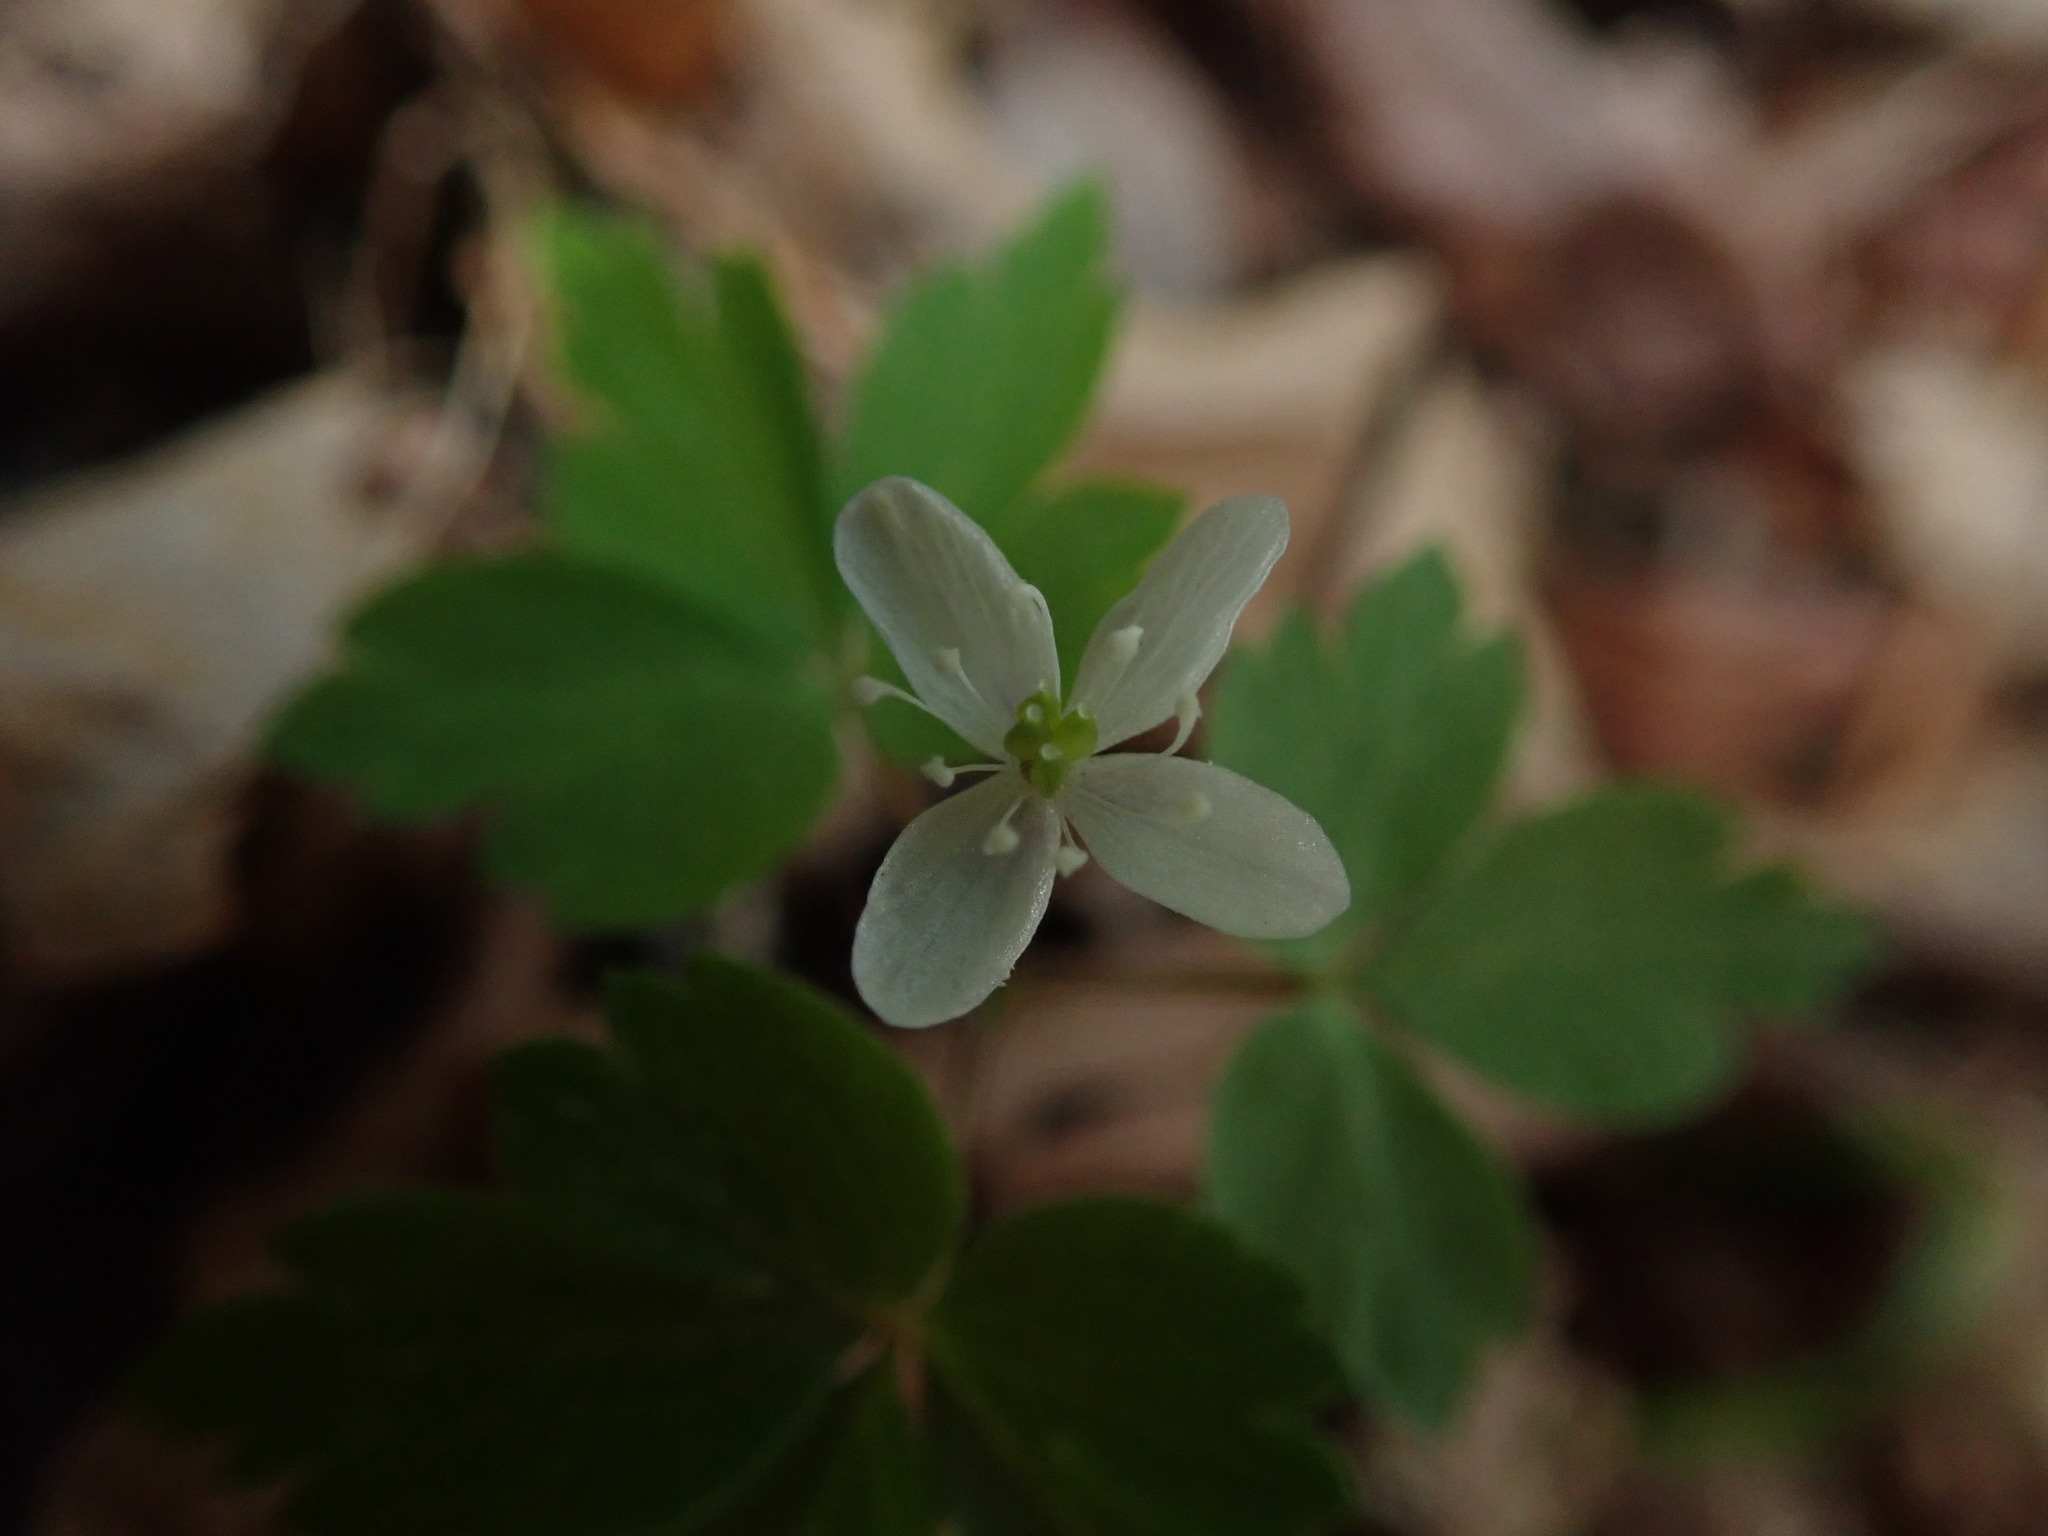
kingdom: Plantae
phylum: Tracheophyta
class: Magnoliopsida
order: Ranunculales
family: Ranunculaceae
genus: Anemone
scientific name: Anemone
